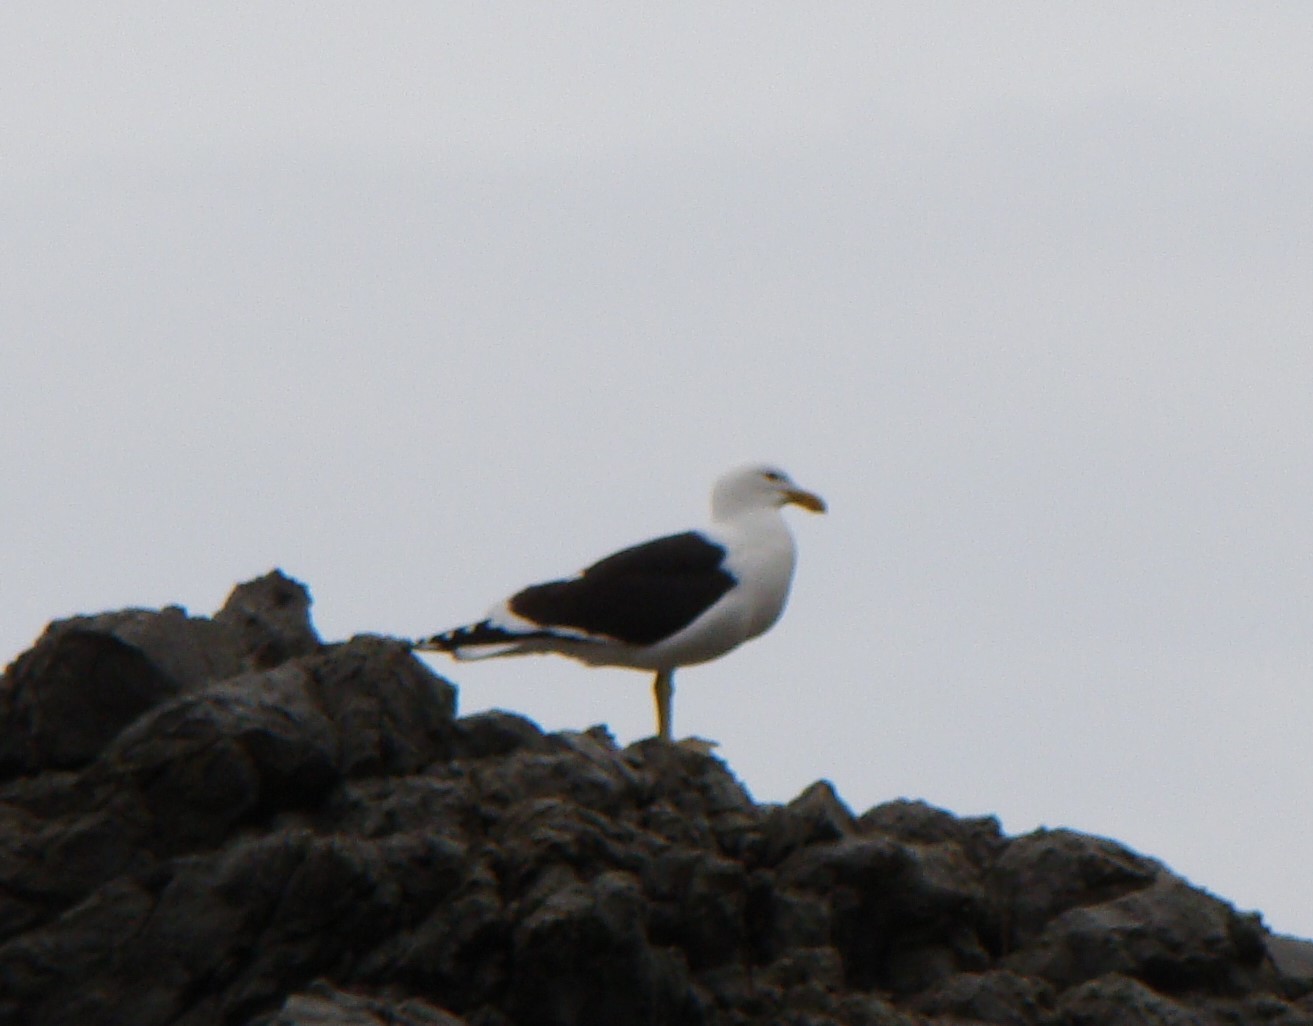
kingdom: Animalia
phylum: Chordata
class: Aves
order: Charadriiformes
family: Laridae
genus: Larus
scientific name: Larus dominicanus
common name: Kelp gull
